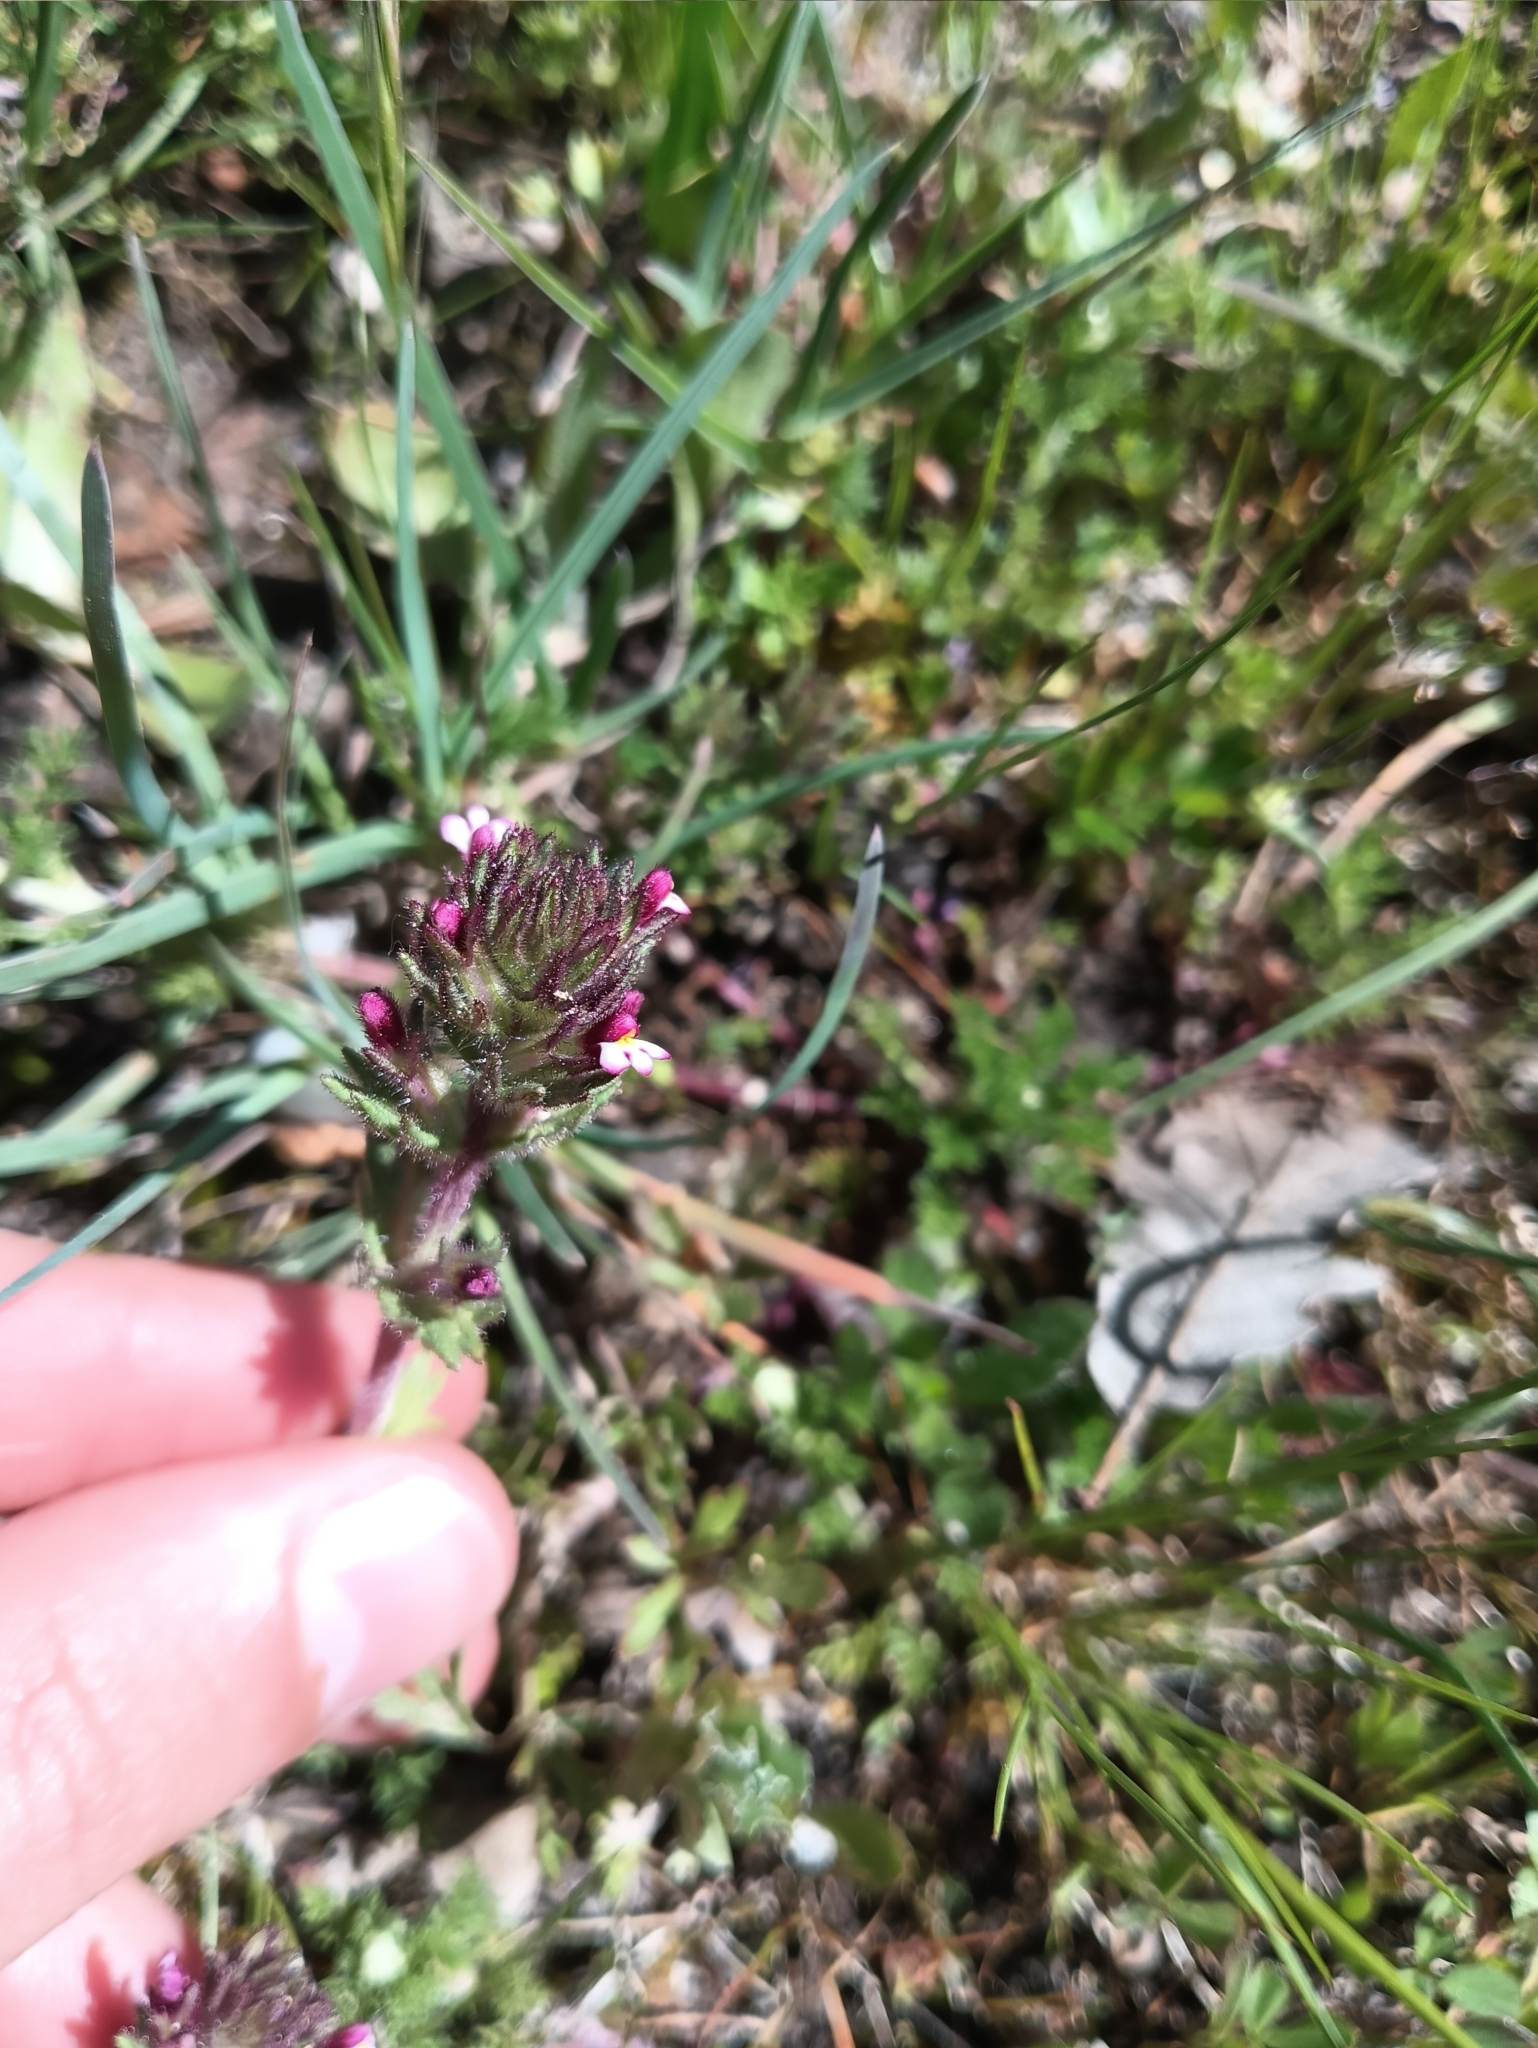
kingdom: Plantae
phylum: Tracheophyta
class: Magnoliopsida
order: Lamiales
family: Orobanchaceae
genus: Parentucellia
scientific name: Parentucellia latifolia
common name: Broadleaf glandweed
